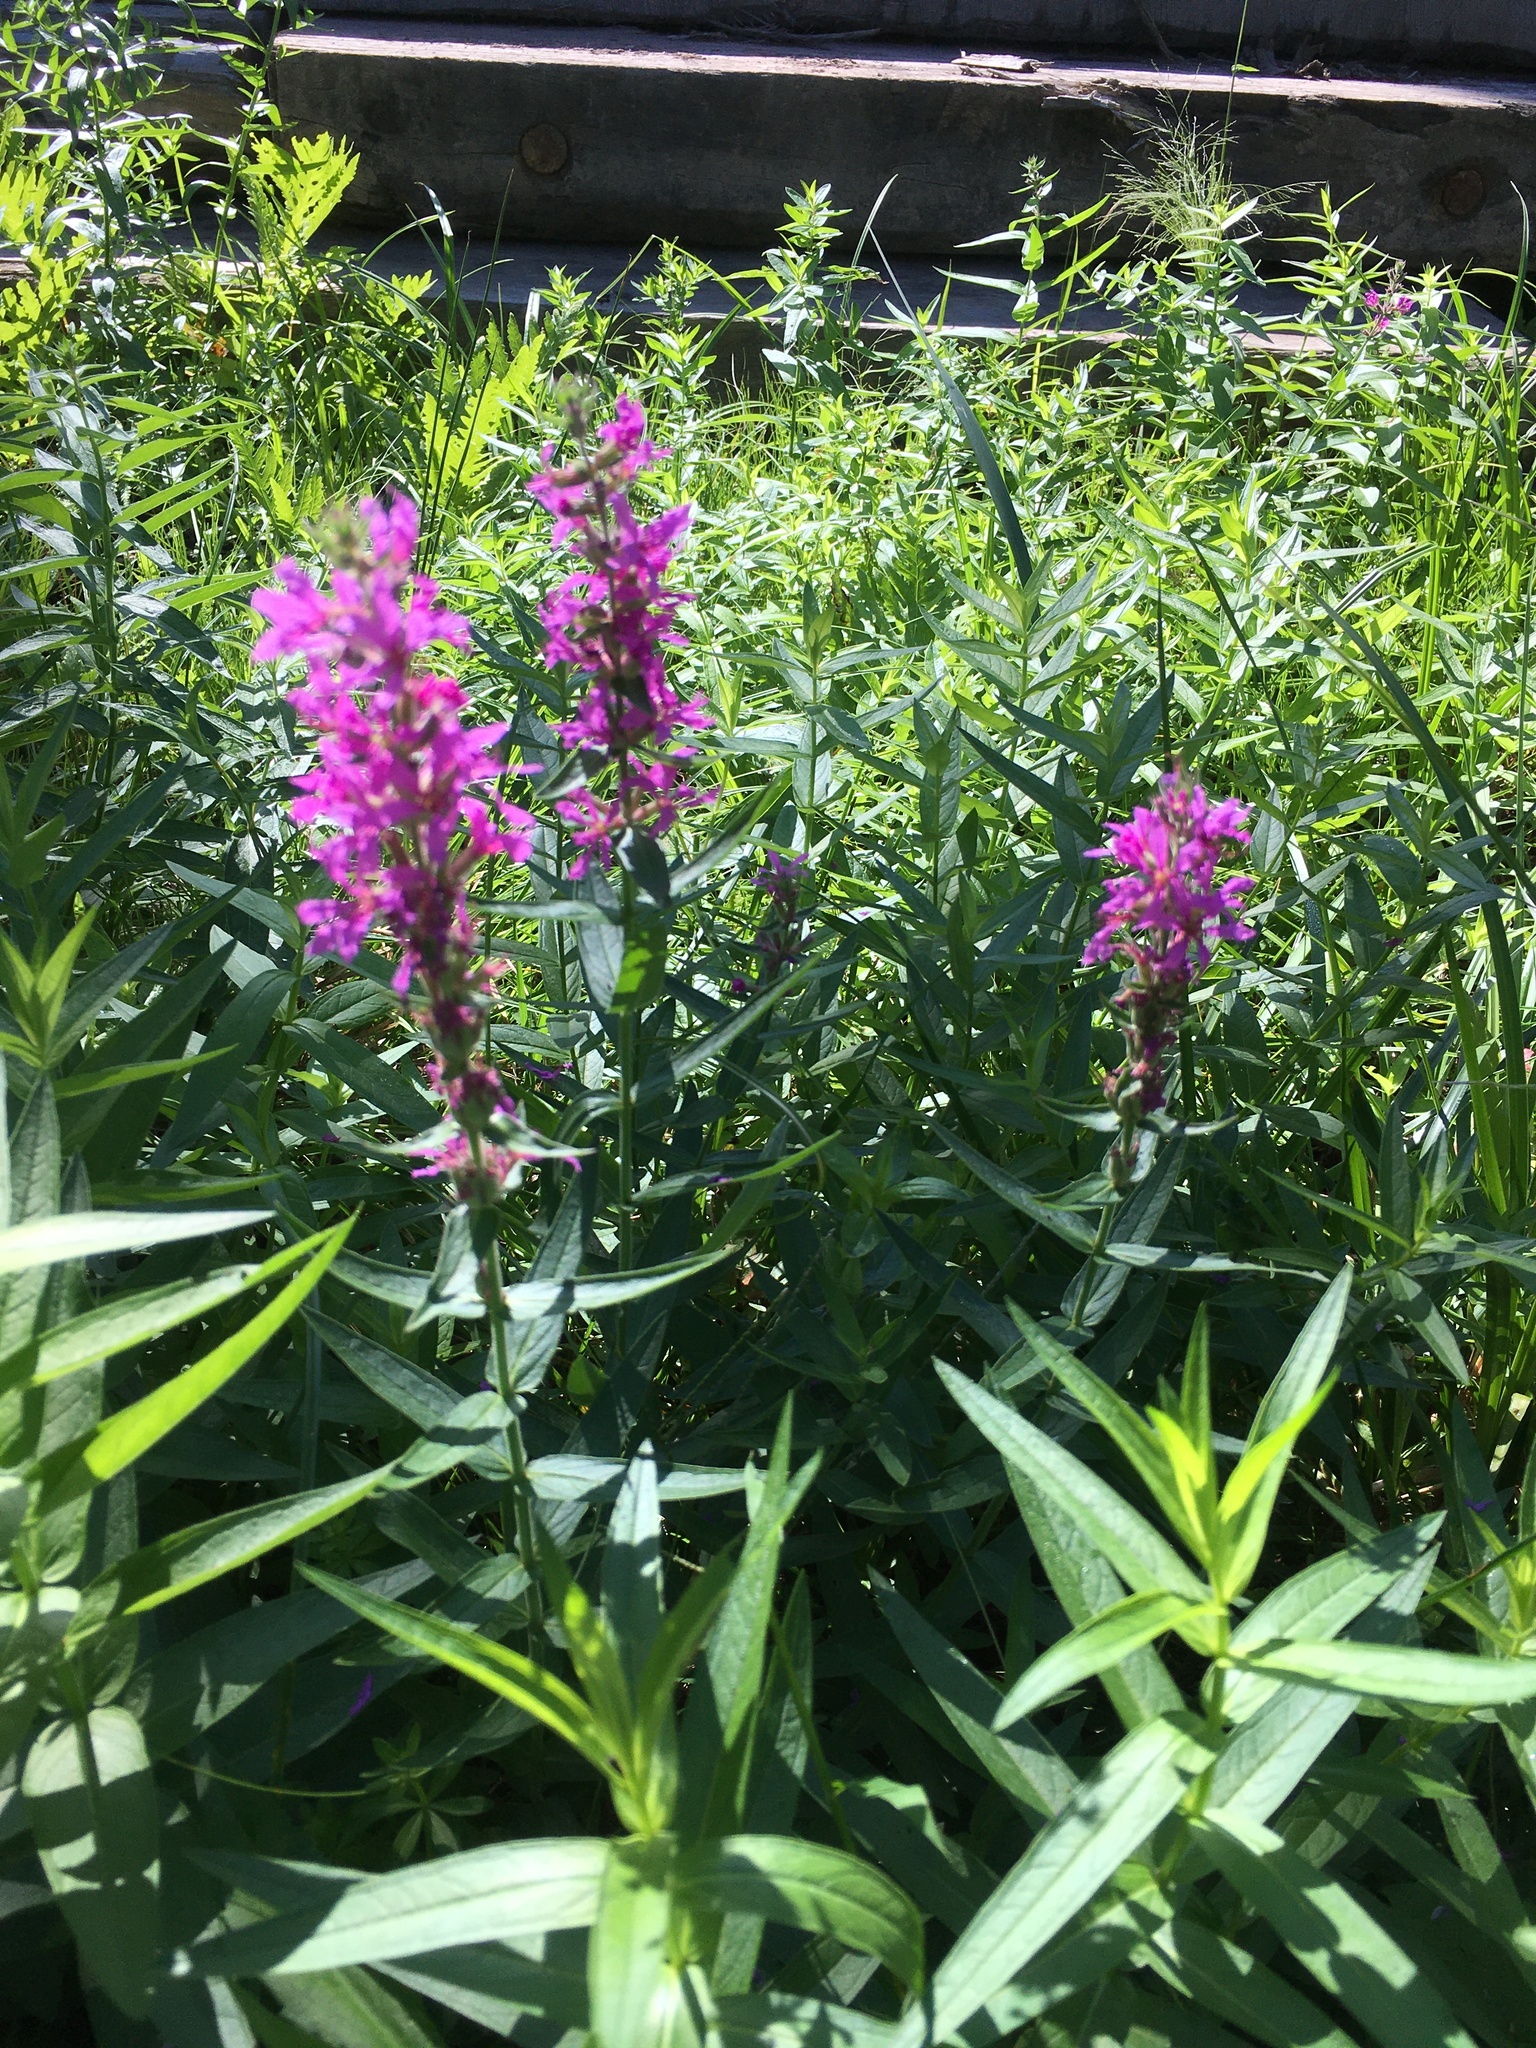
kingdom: Plantae
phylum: Tracheophyta
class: Magnoliopsida
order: Myrtales
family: Lythraceae
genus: Lythrum
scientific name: Lythrum salicaria
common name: Purple loosestrife
